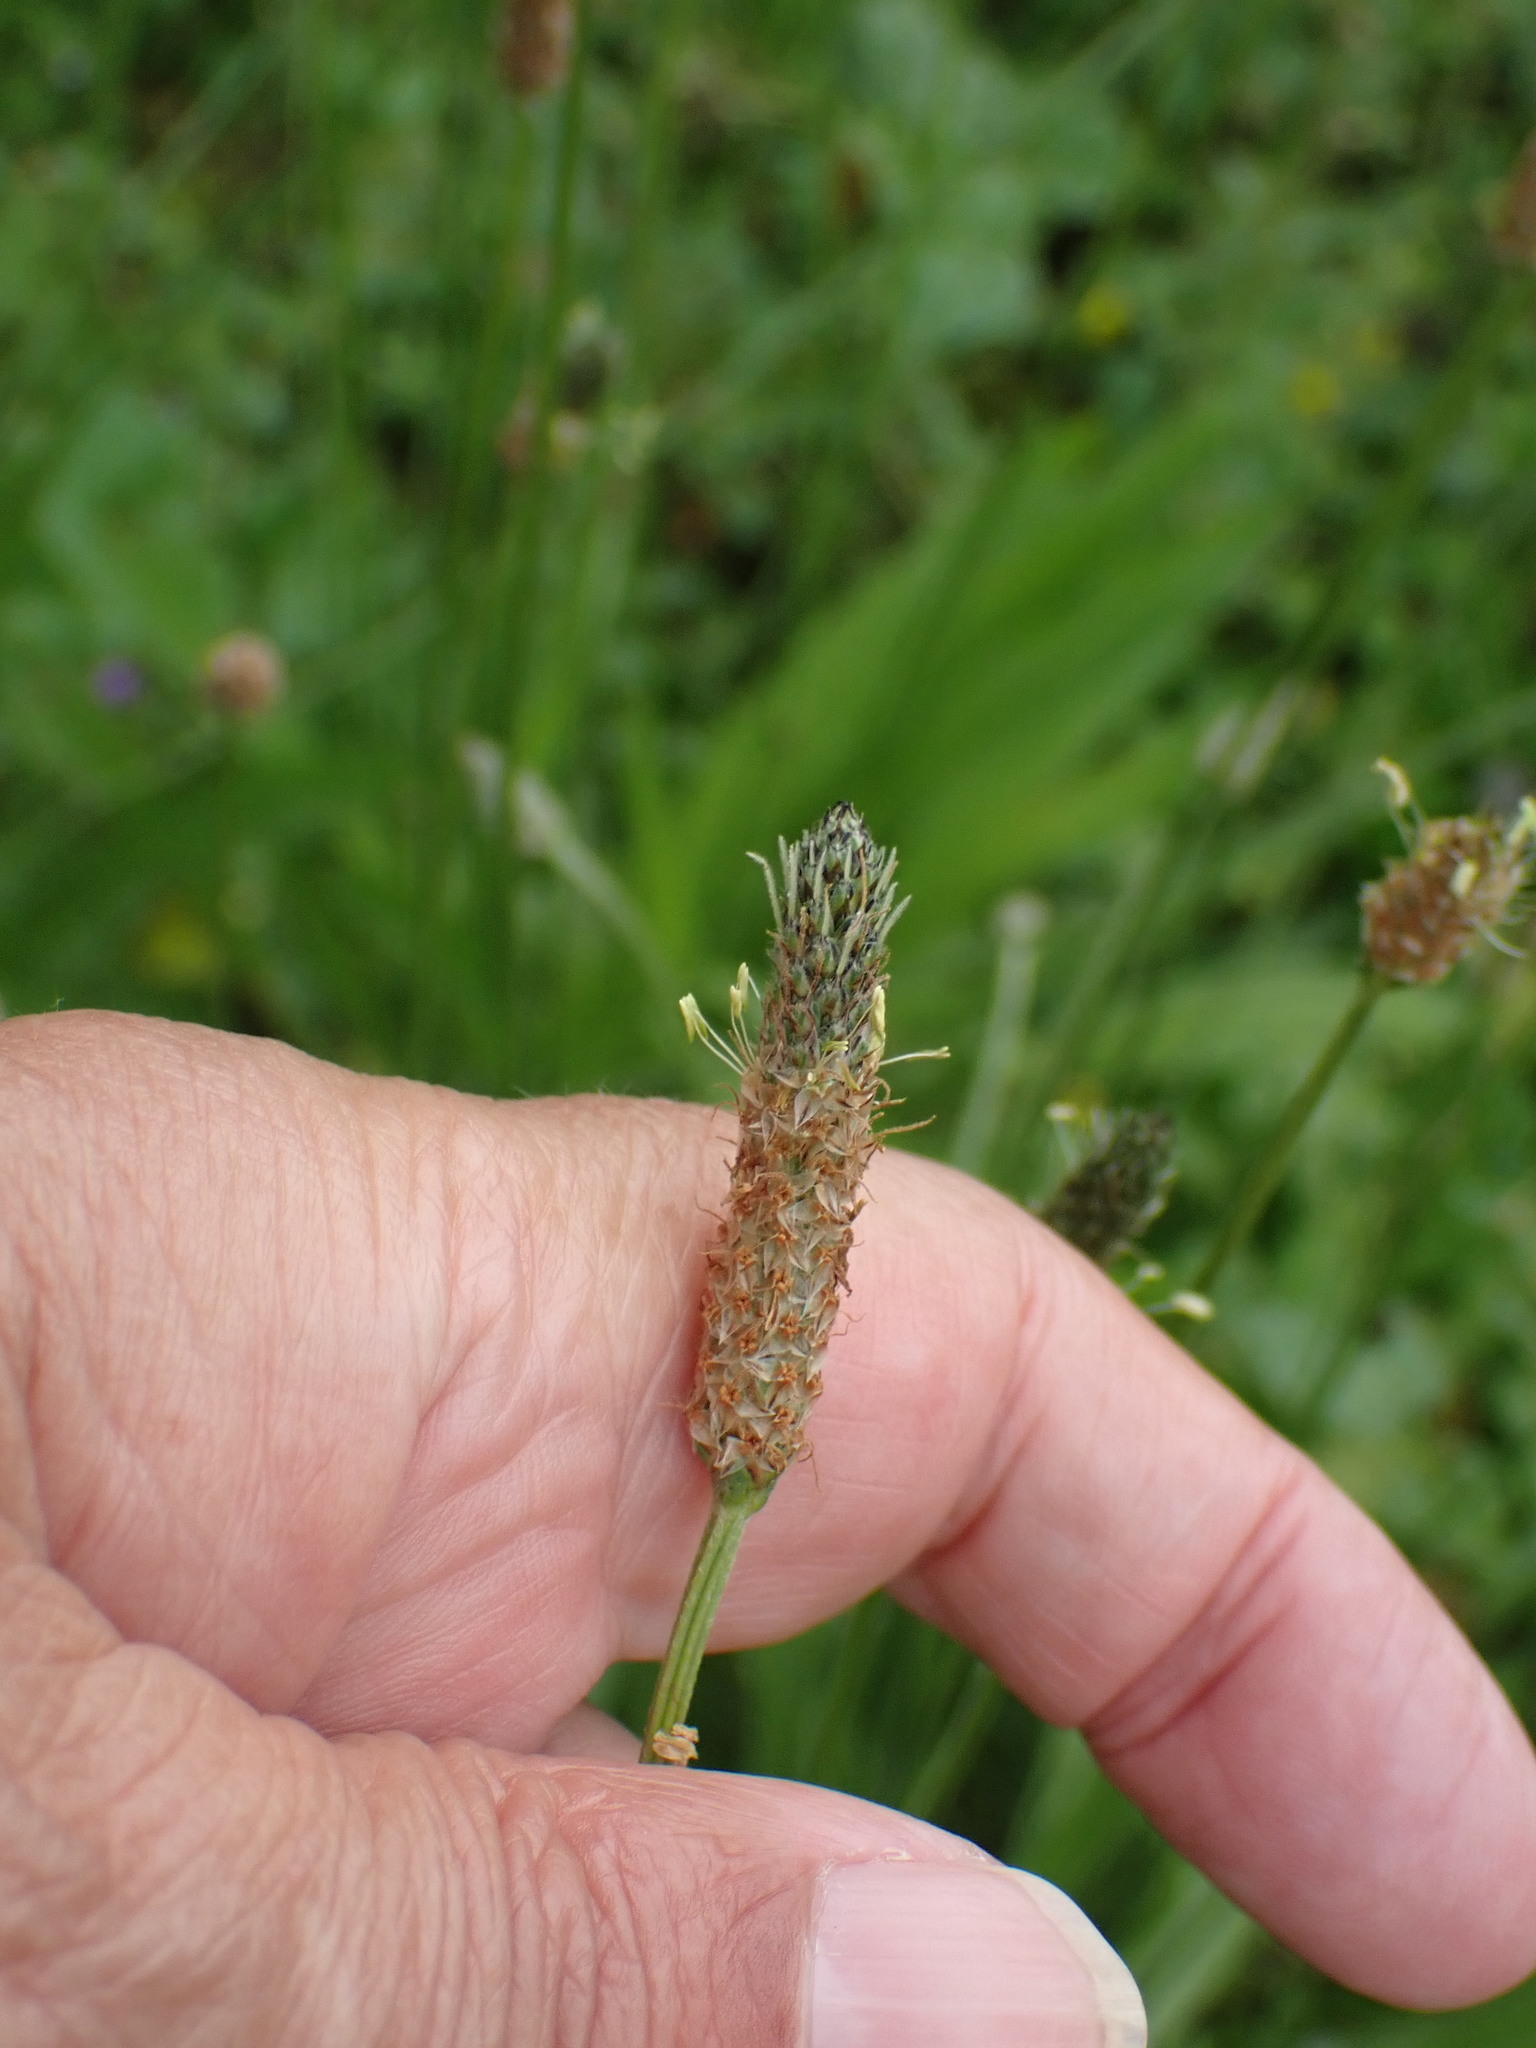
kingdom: Plantae
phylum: Tracheophyta
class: Magnoliopsida
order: Lamiales
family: Plantaginaceae
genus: Plantago
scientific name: Plantago lanceolata
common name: Ribwort plantain
